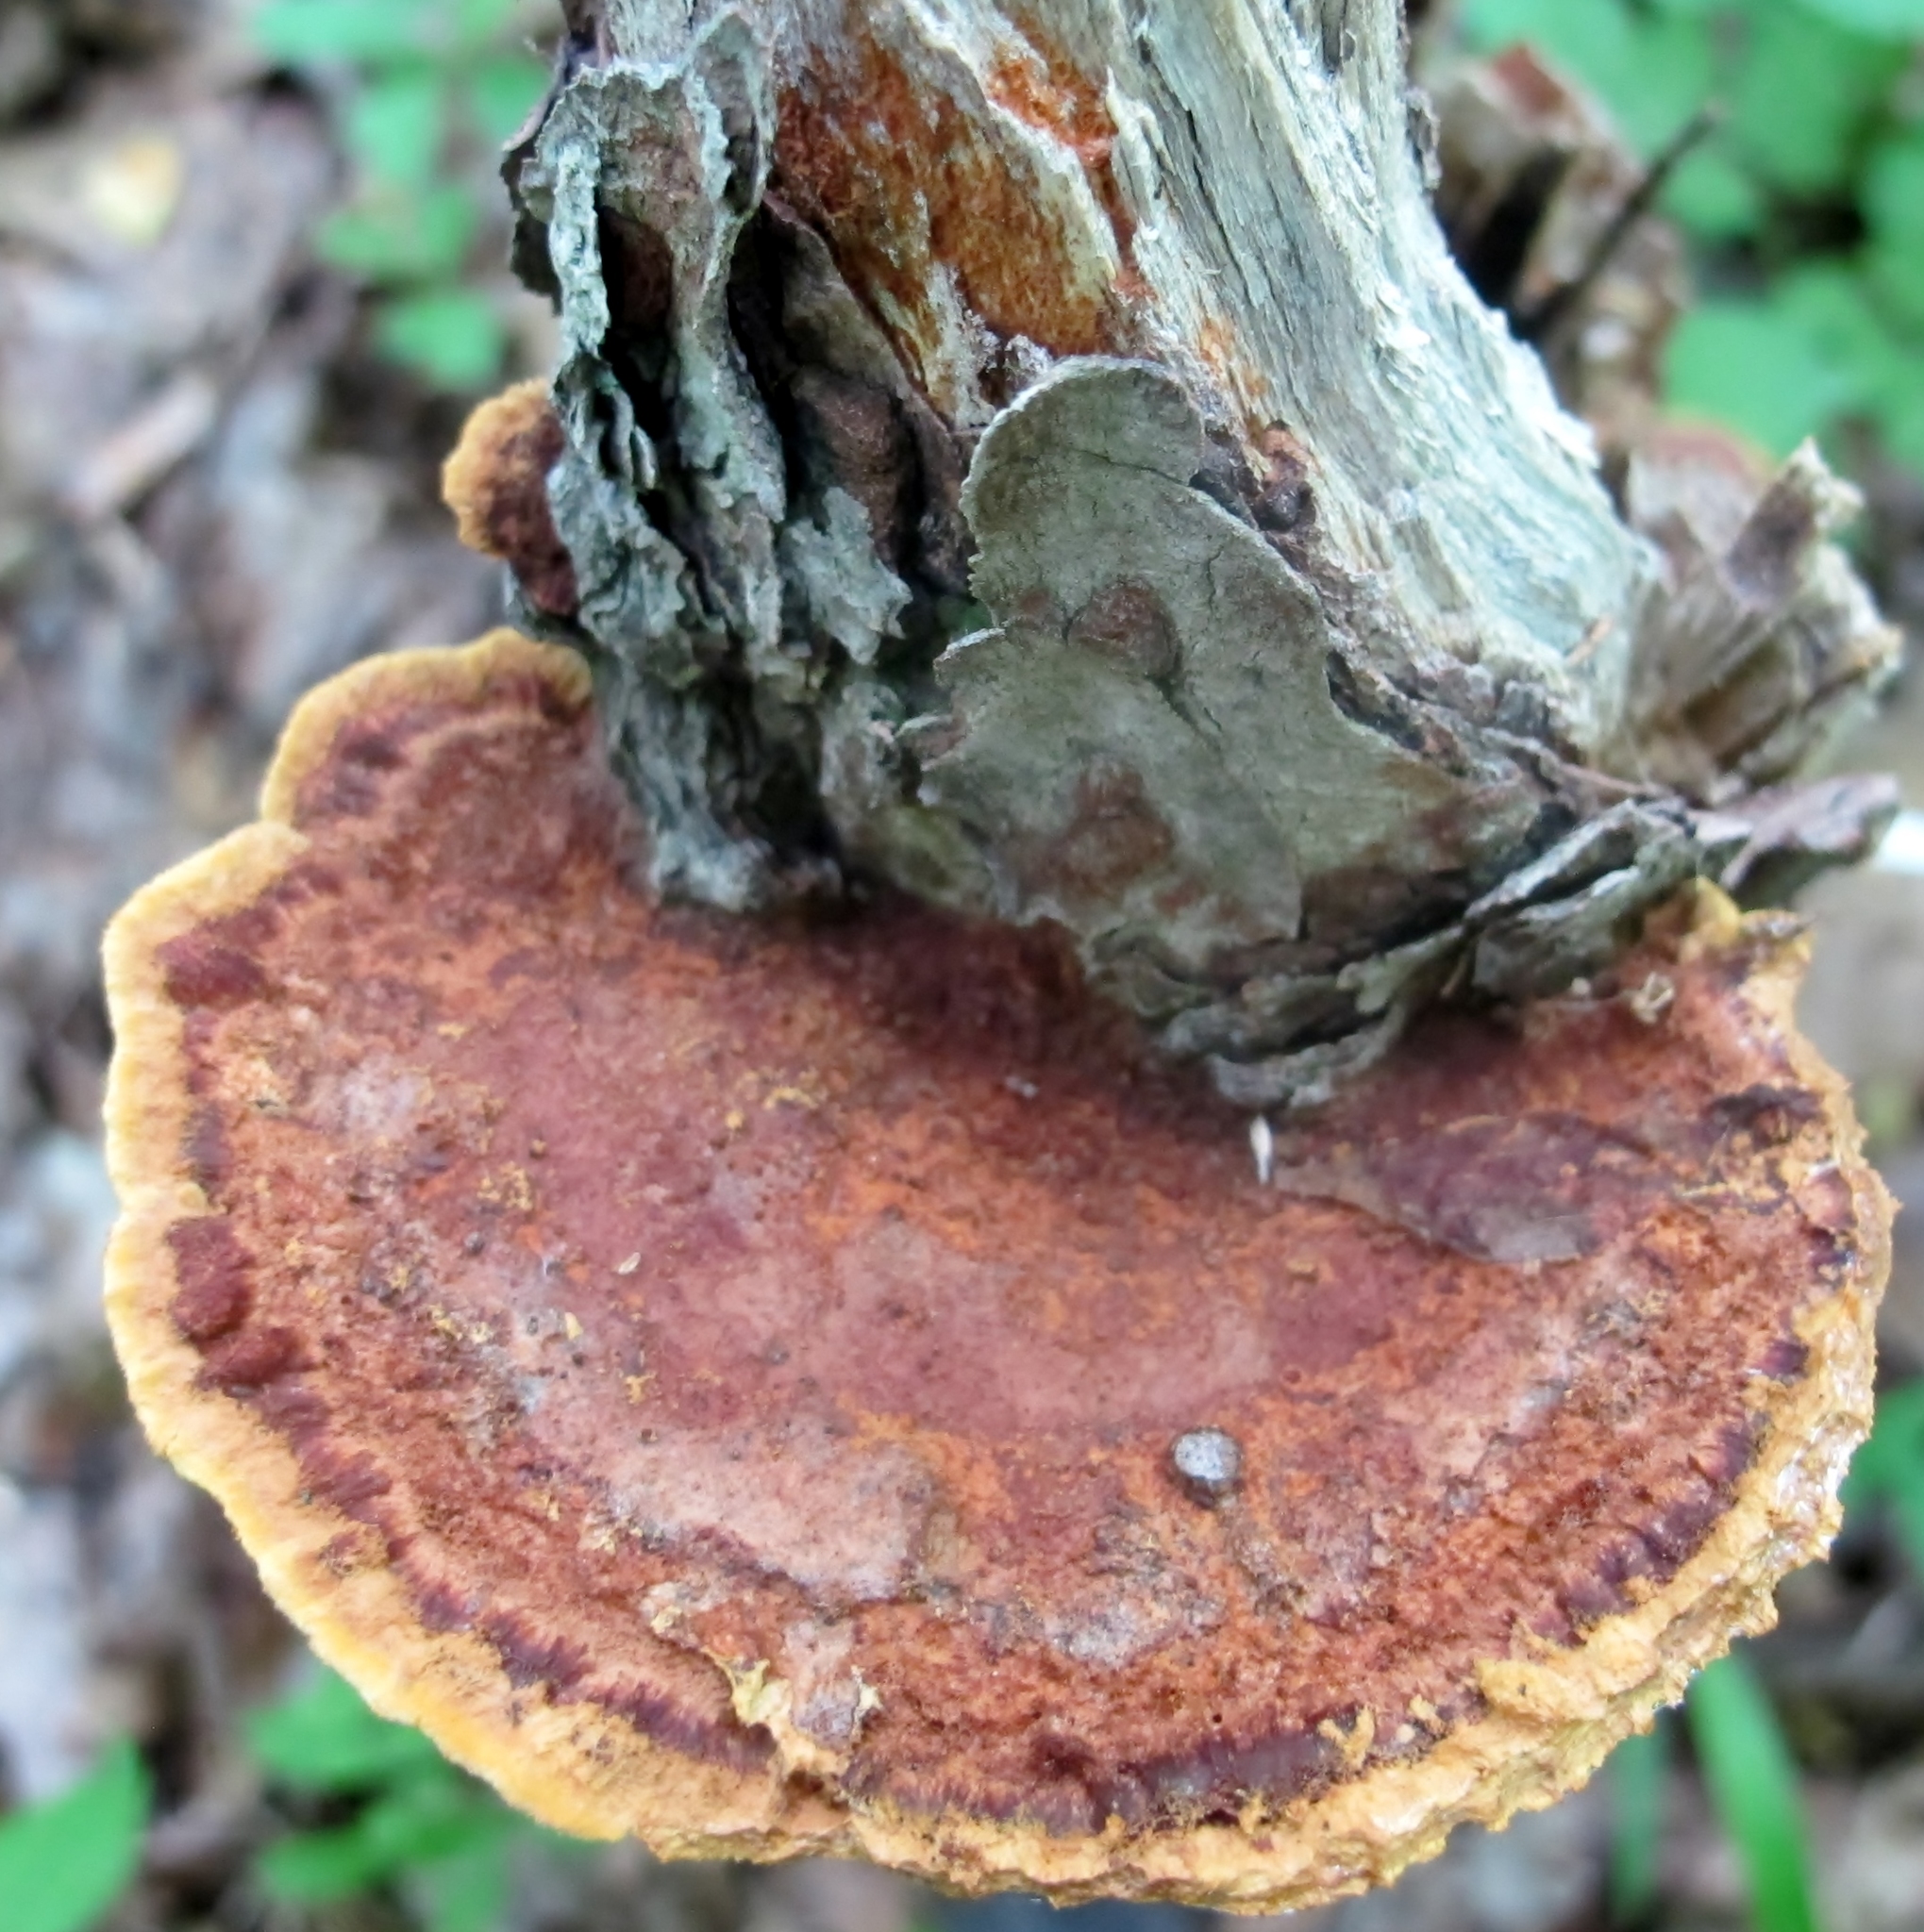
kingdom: Fungi
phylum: Basidiomycota
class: Agaricomycetes
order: Hymenochaetales
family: Hymenochaetaceae
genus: Phellinus
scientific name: Phellinus gilvus
